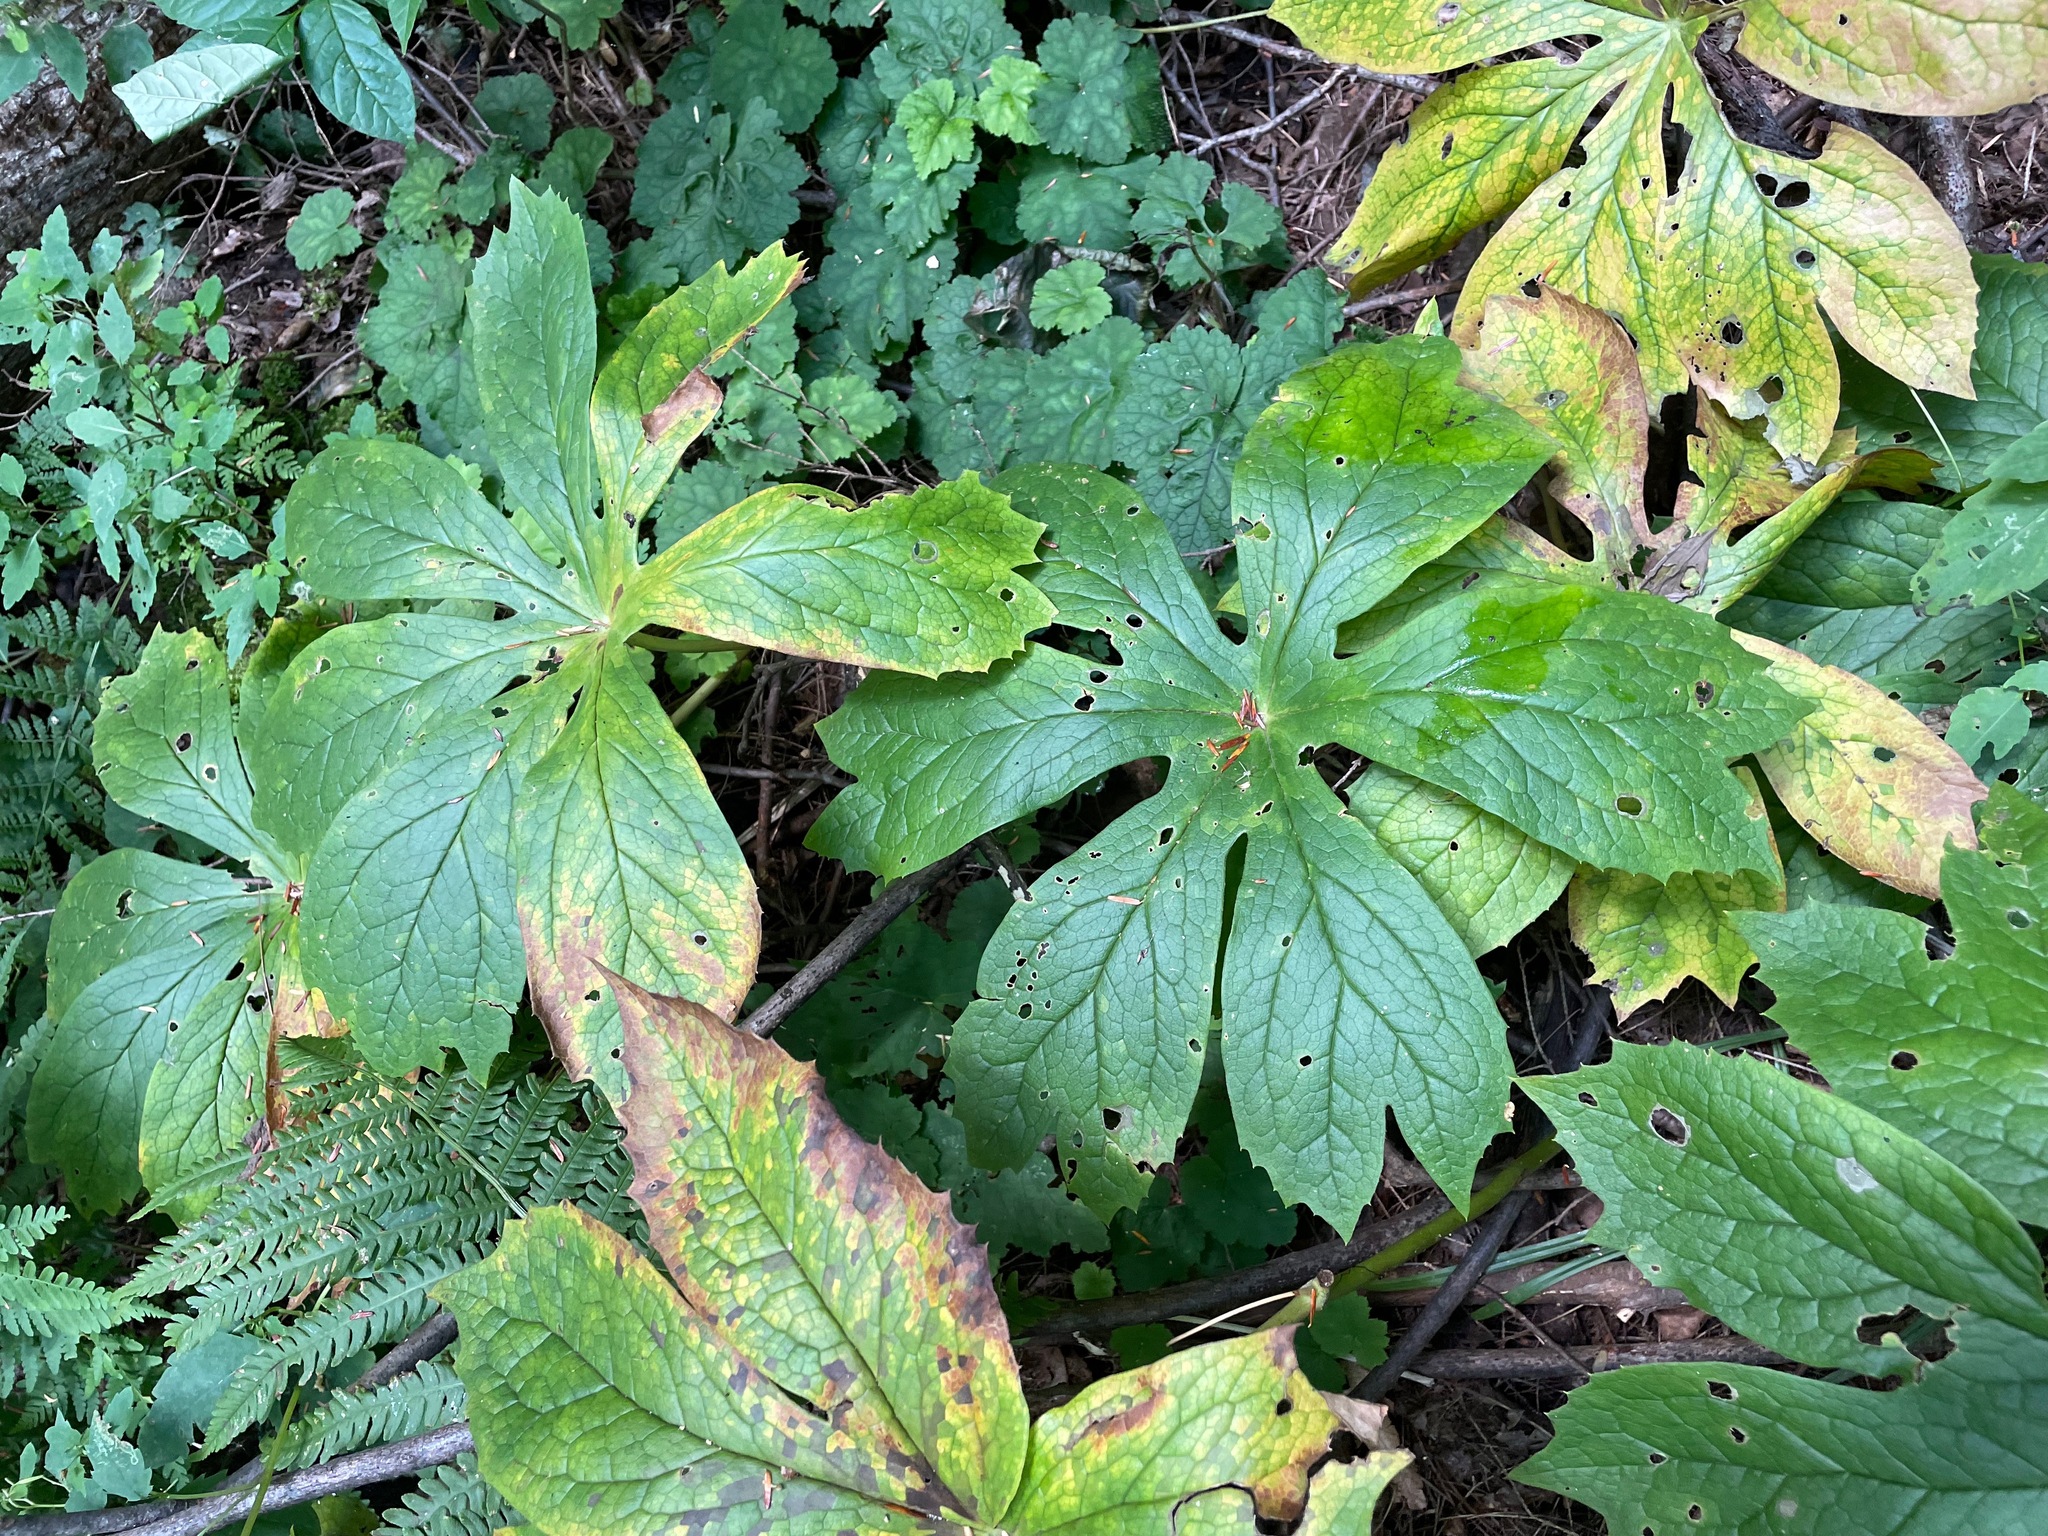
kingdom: Plantae
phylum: Tracheophyta
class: Magnoliopsida
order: Ranunculales
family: Berberidaceae
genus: Podophyllum
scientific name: Podophyllum peltatum
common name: Wild mandrake
